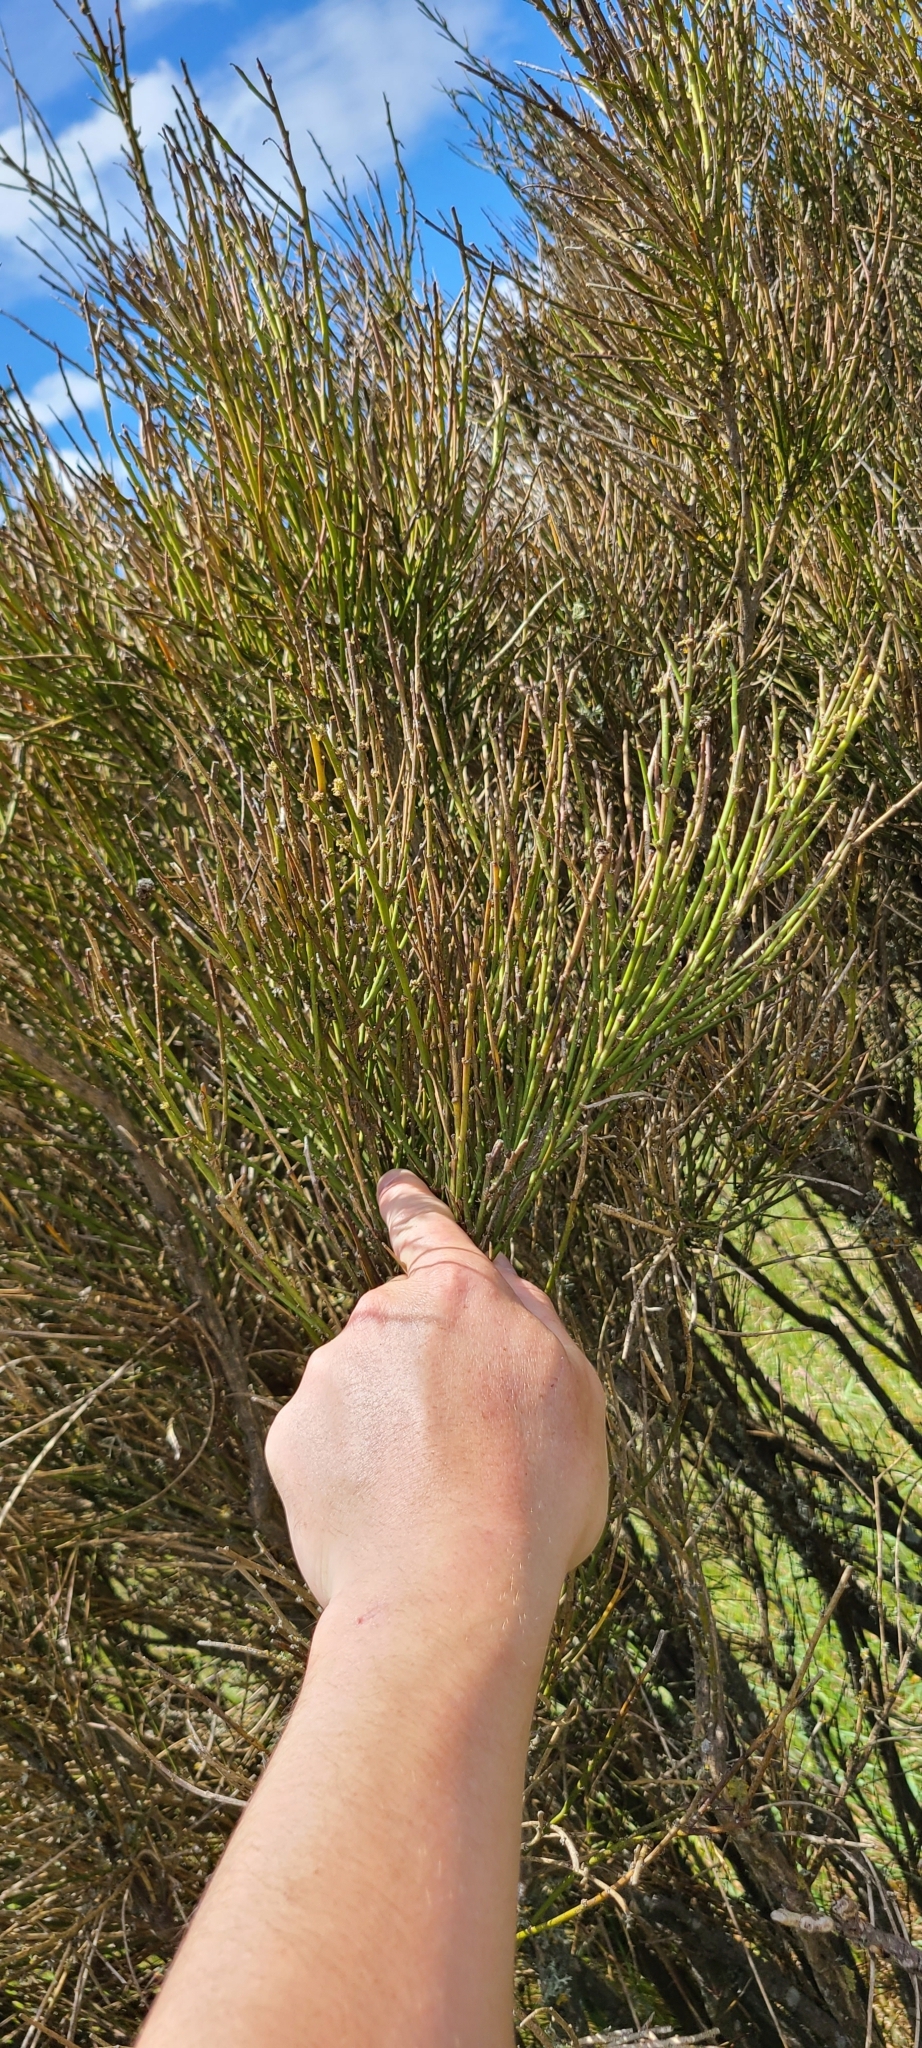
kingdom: Plantae
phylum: Tracheophyta
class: Magnoliopsida
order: Fabales
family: Fabaceae
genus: Carmichaelia
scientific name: Carmichaelia australis
